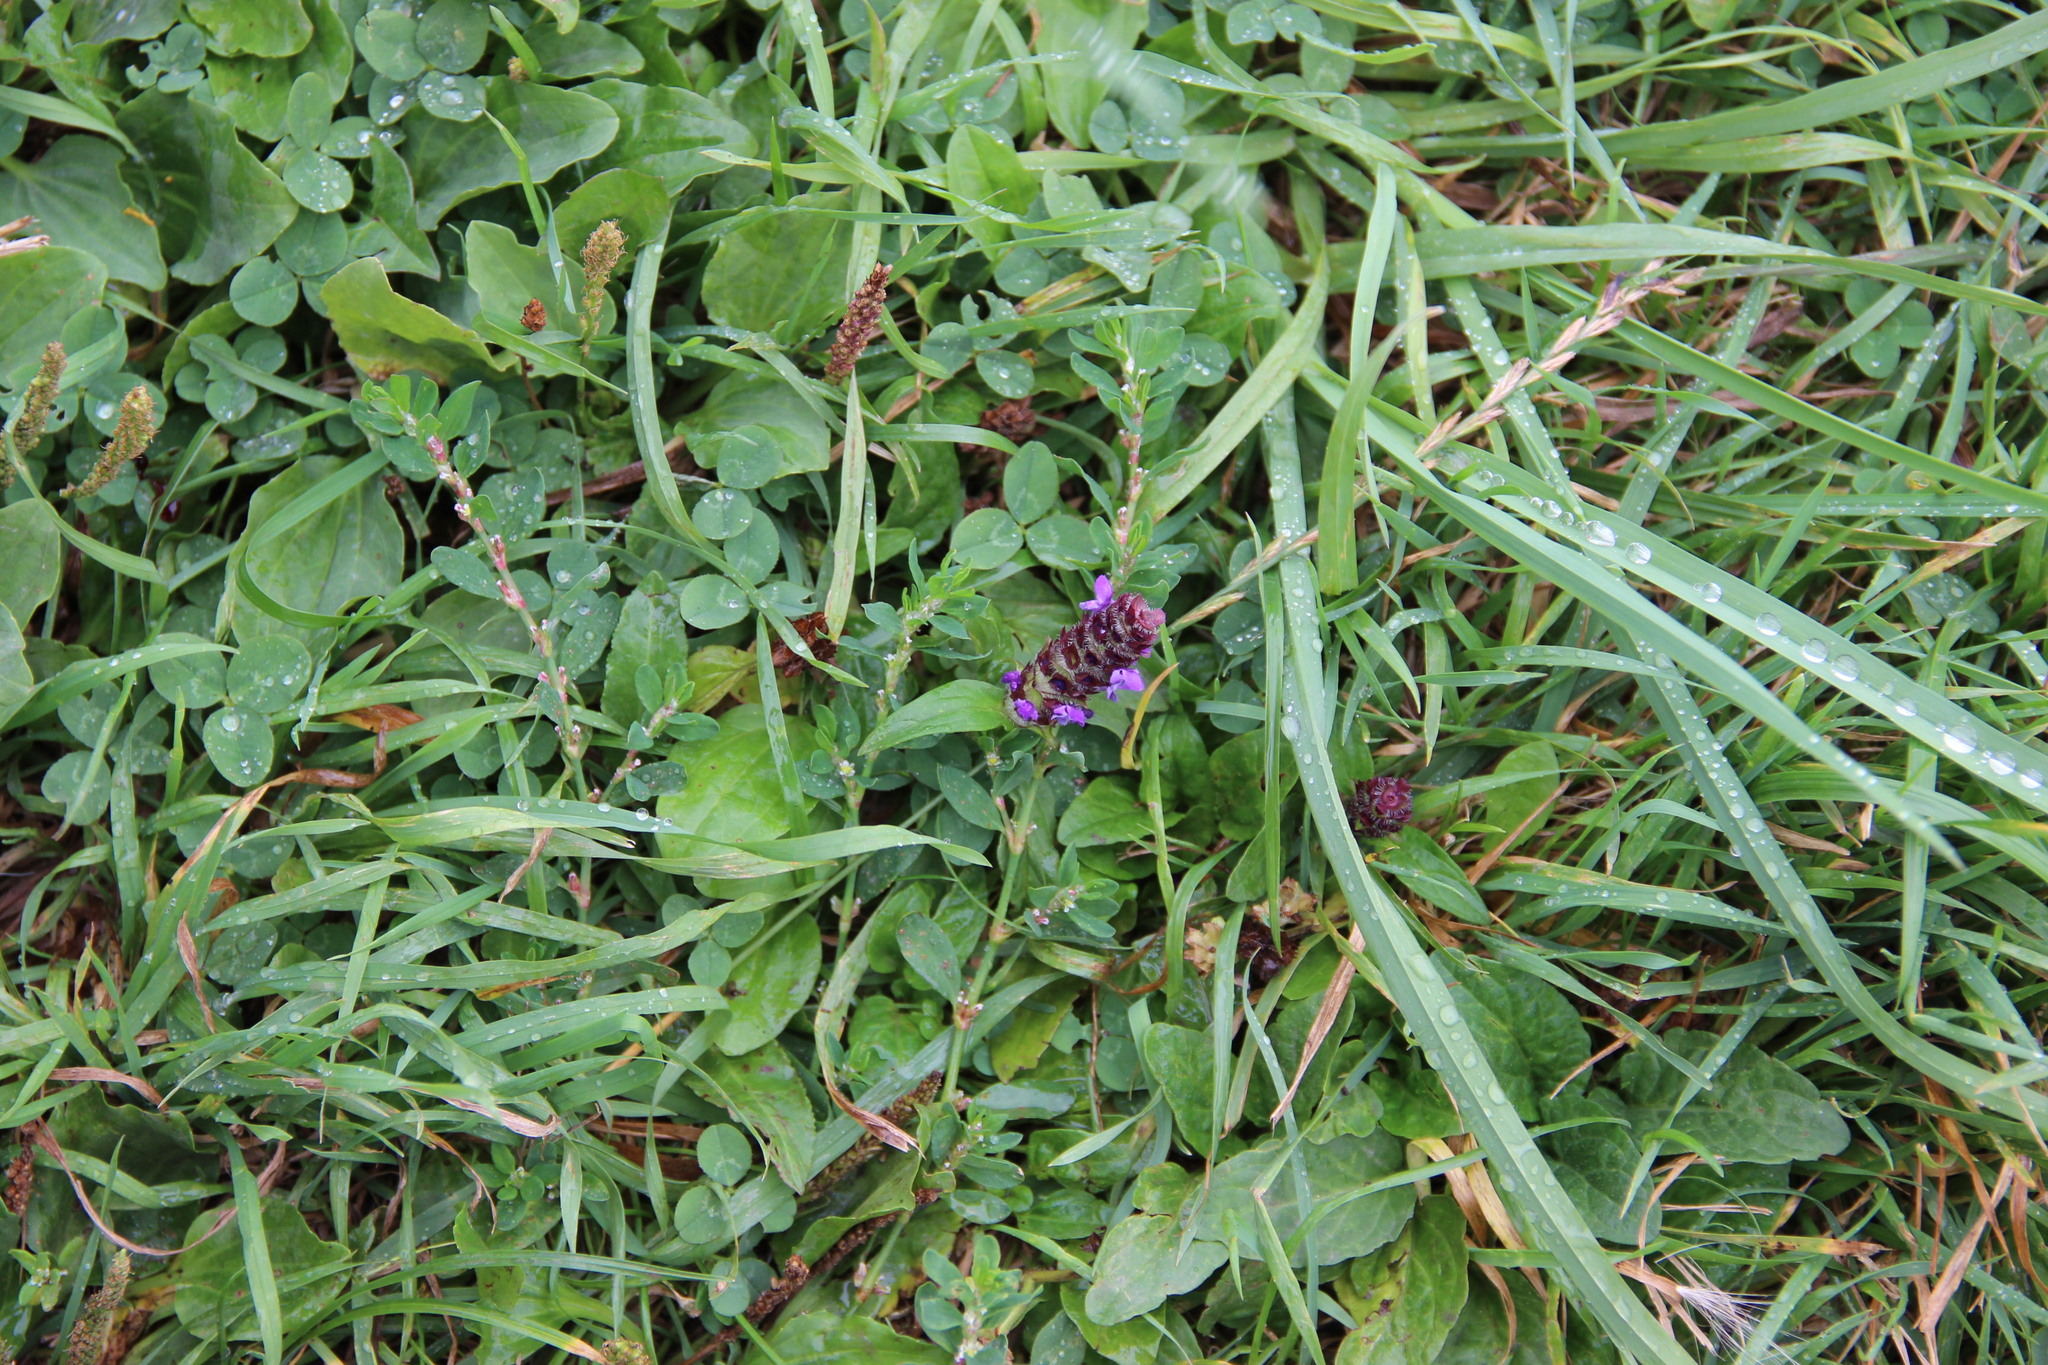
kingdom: Plantae
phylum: Tracheophyta
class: Magnoliopsida
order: Lamiales
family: Lamiaceae
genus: Prunella
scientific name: Prunella vulgaris
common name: Heal-all
